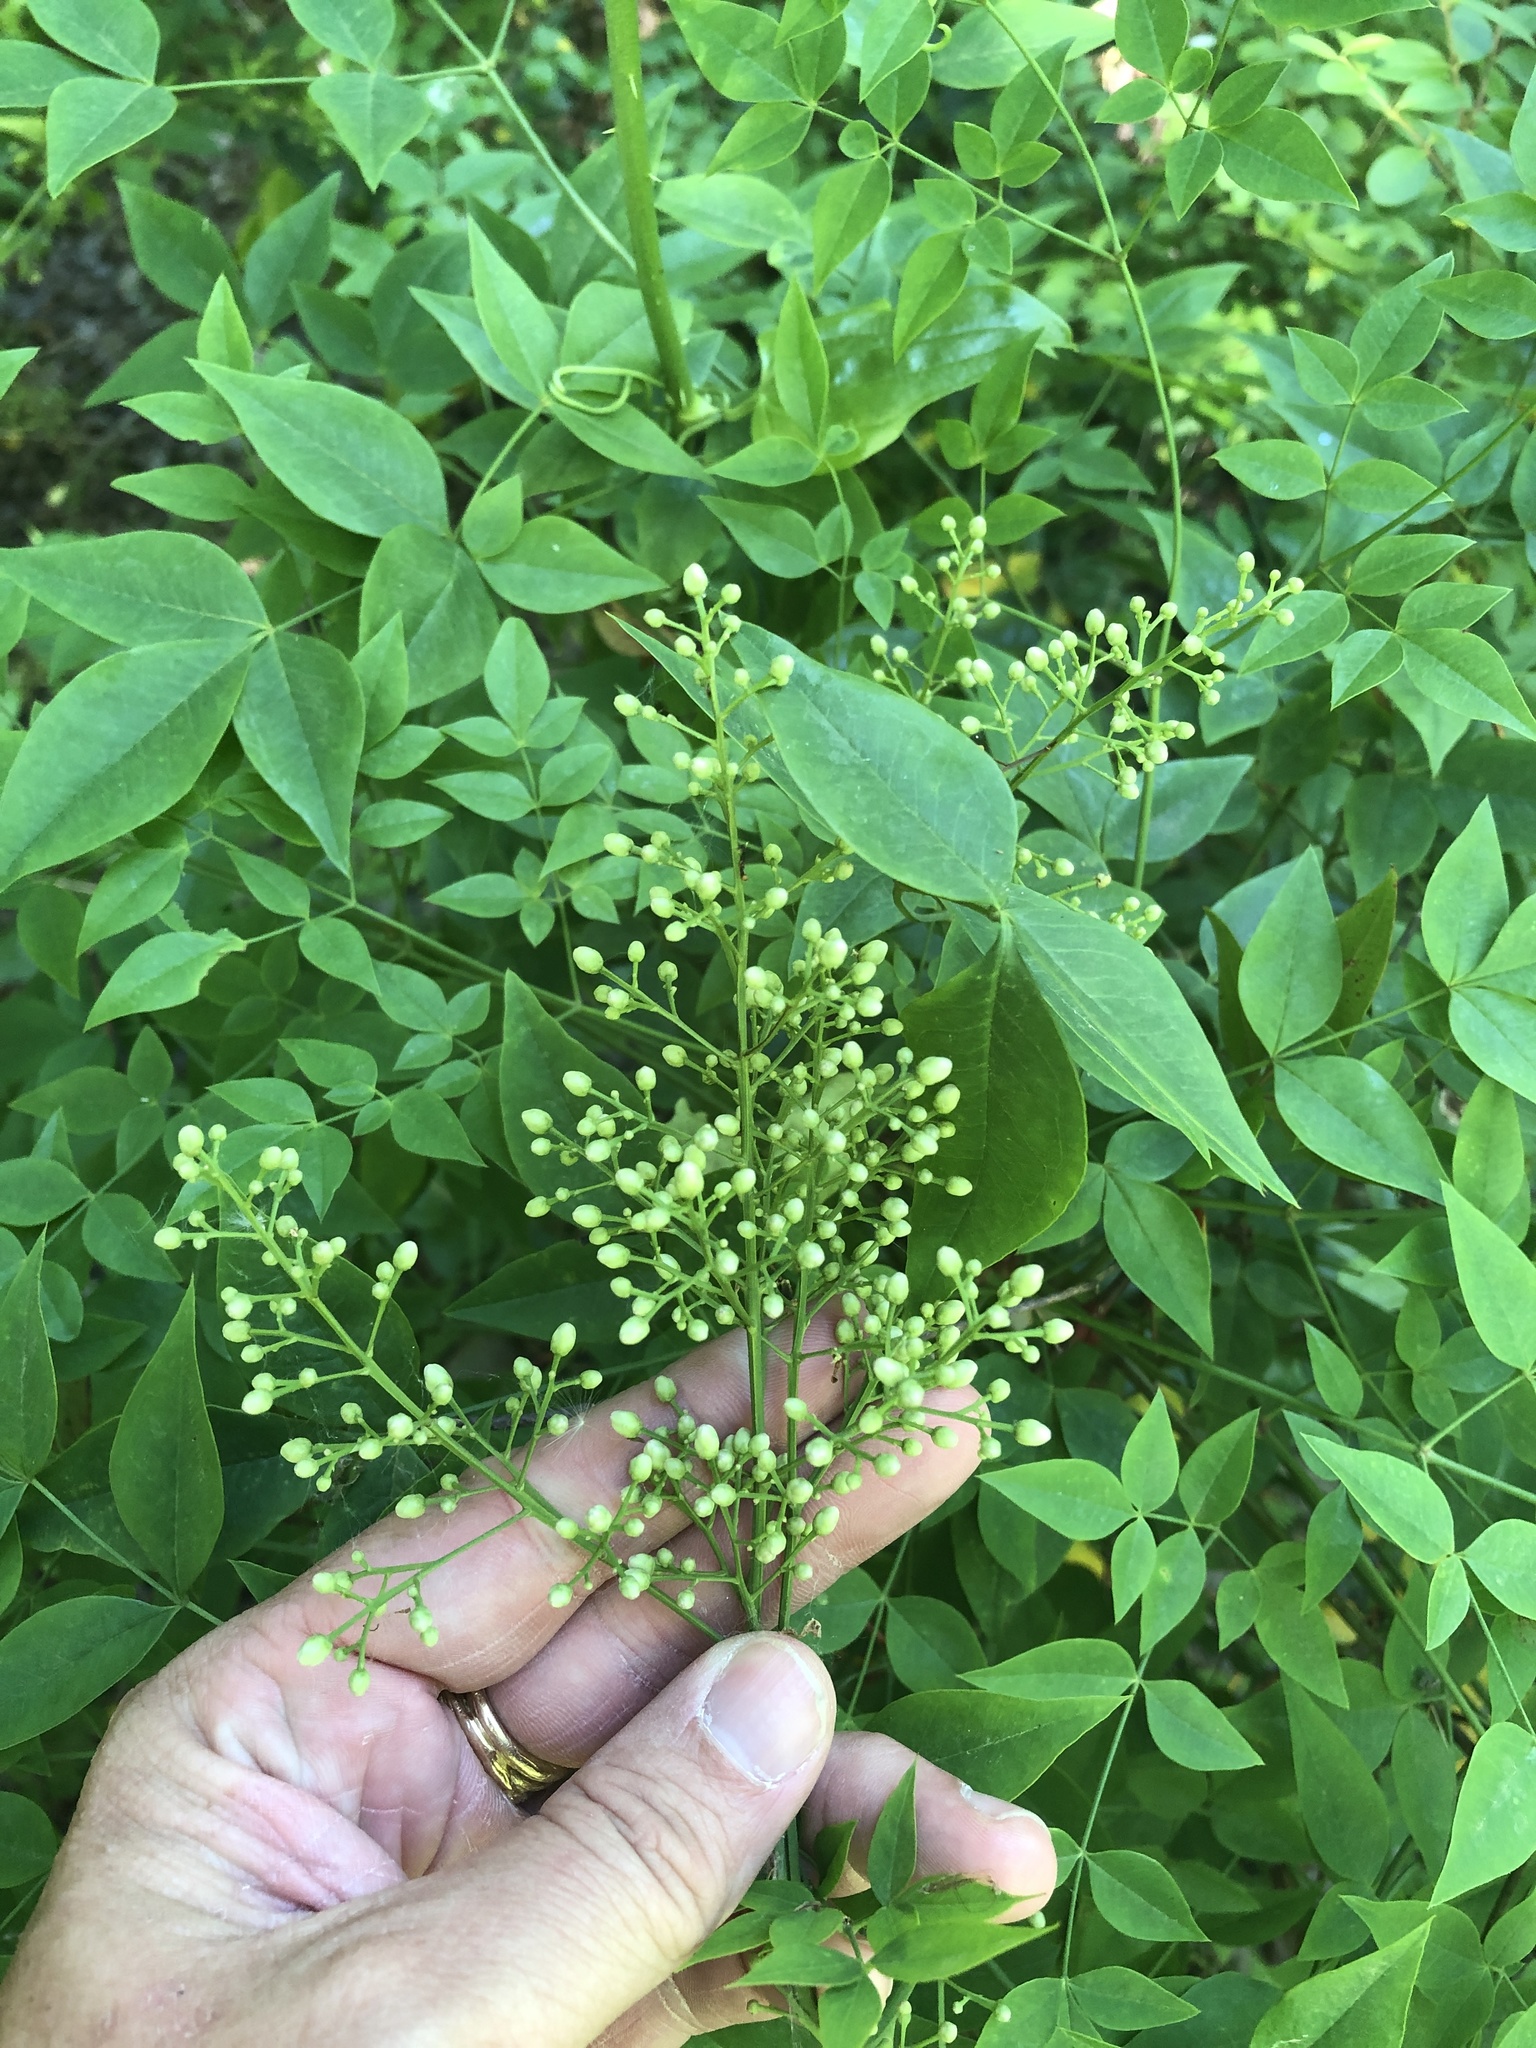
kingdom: Plantae
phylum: Tracheophyta
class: Magnoliopsida
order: Ranunculales
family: Berberidaceae
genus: Nandina
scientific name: Nandina domestica
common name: Sacred bamboo
